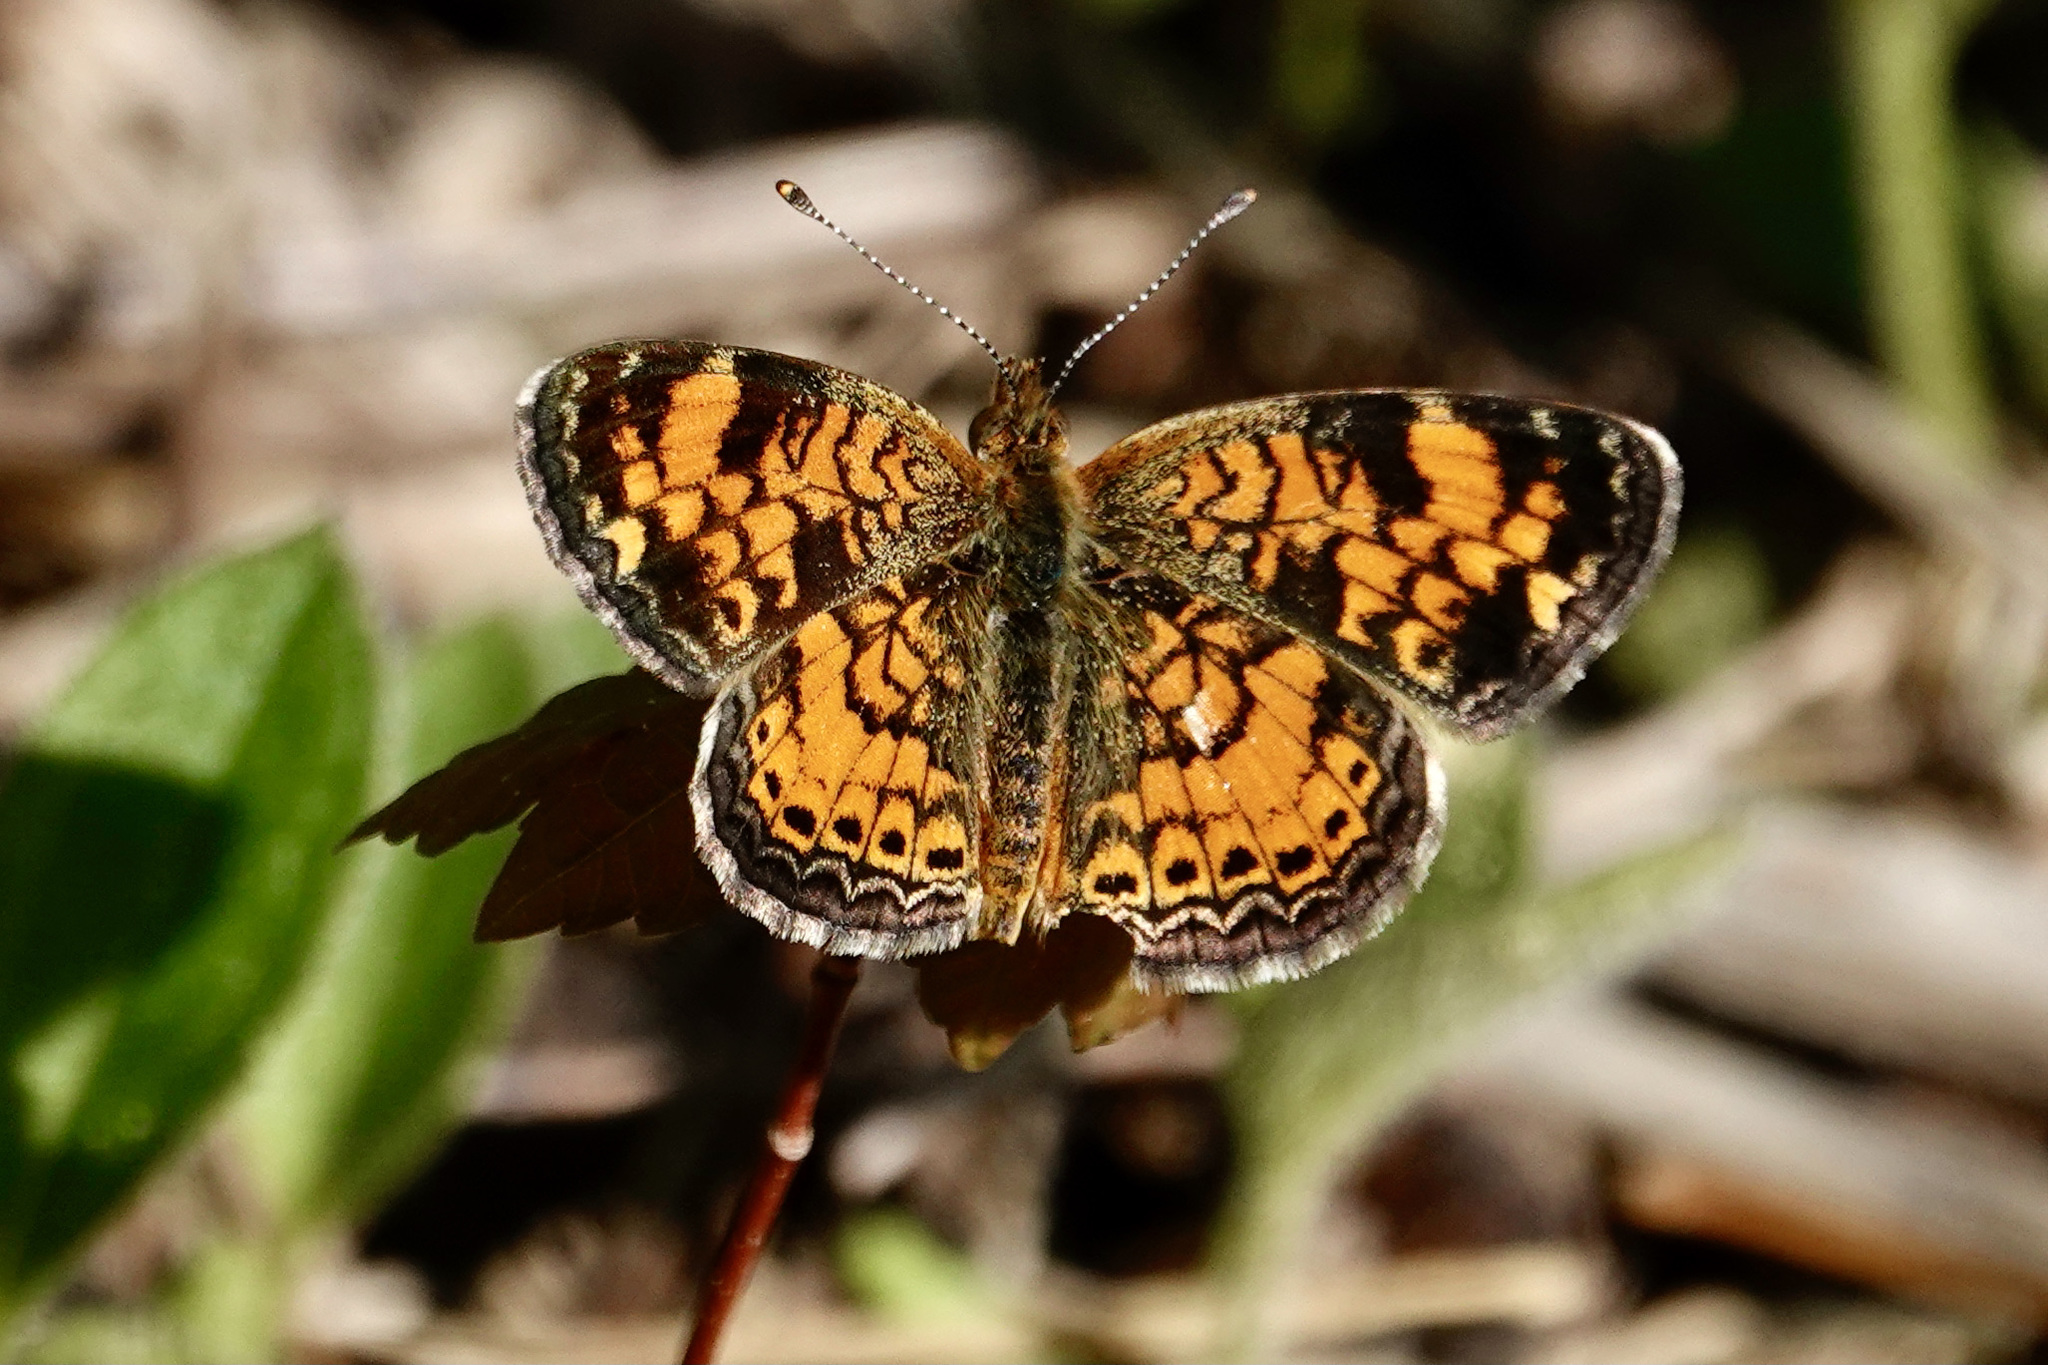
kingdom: Animalia
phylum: Arthropoda
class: Insecta
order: Lepidoptera
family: Nymphalidae
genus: Phyciodes
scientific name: Phyciodes tharos
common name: Pearl crescent
